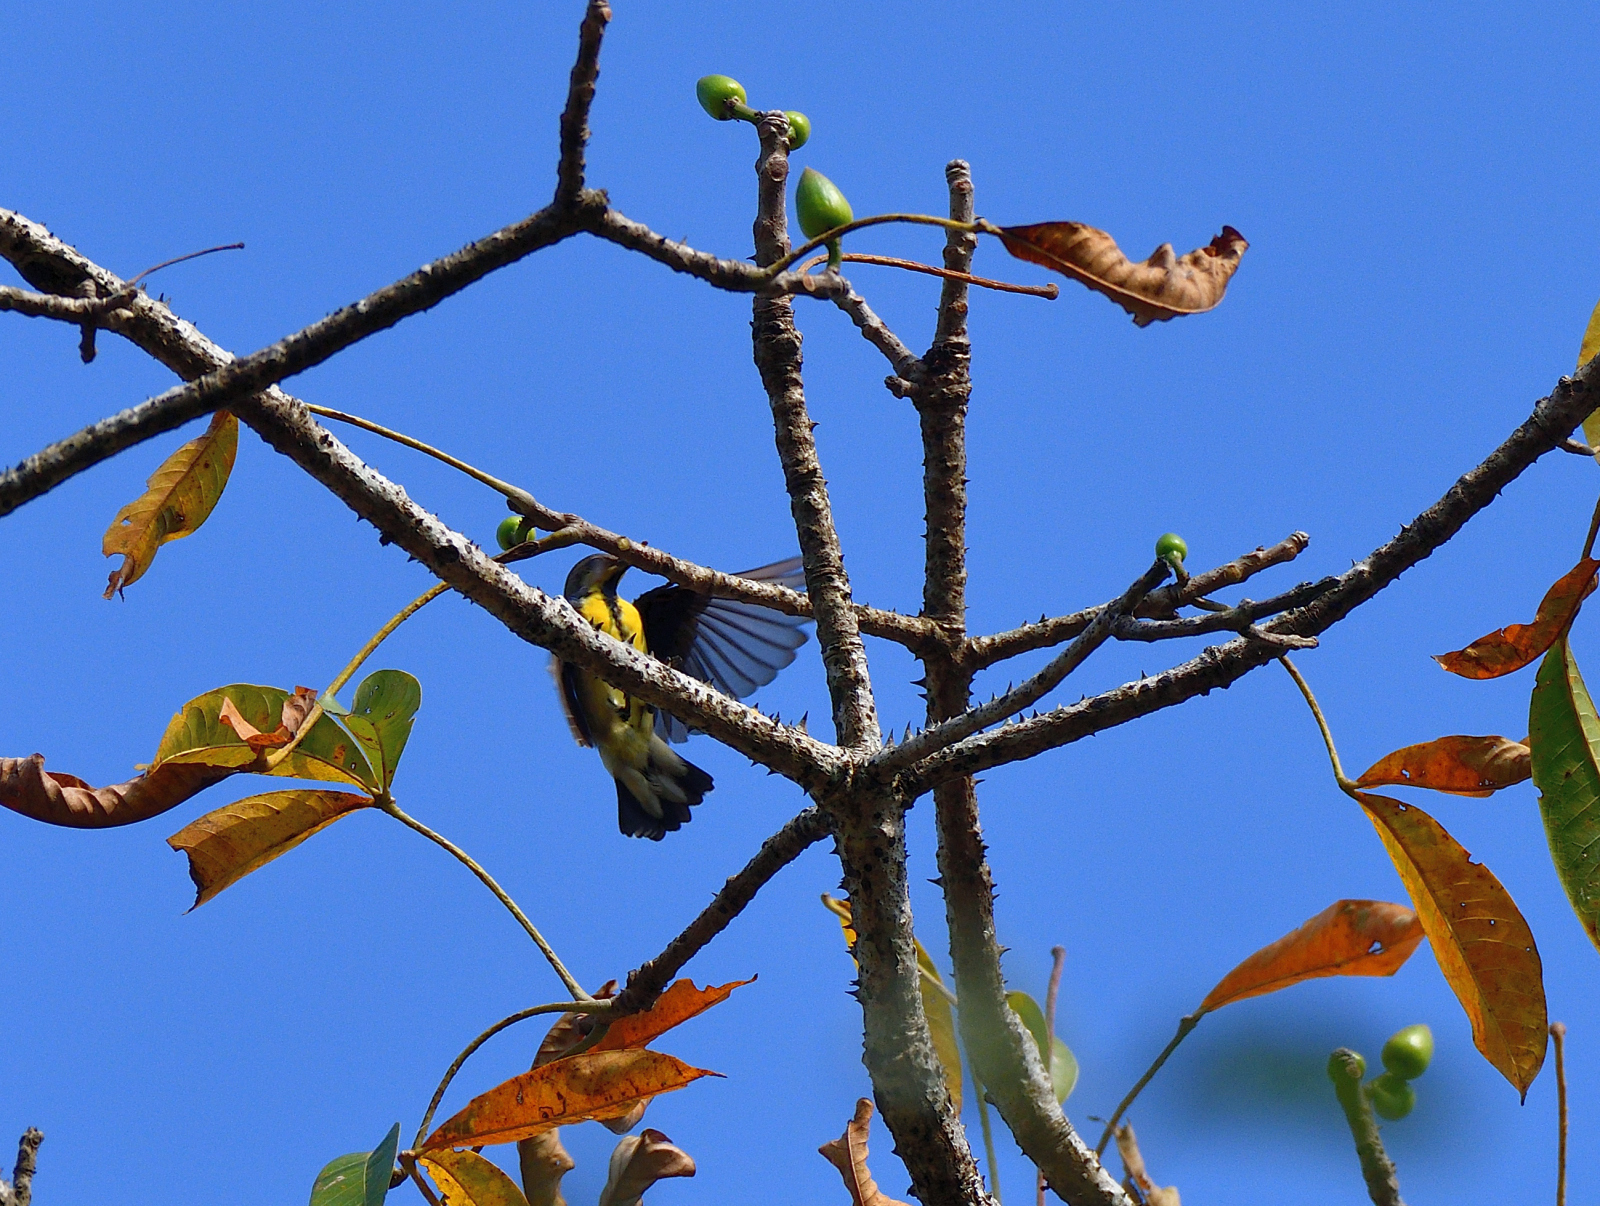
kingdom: Animalia
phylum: Chordata
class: Aves
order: Passeriformes
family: Nectariniidae
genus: Cinnyris
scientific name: Cinnyris asiaticus
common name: Purple sunbird
